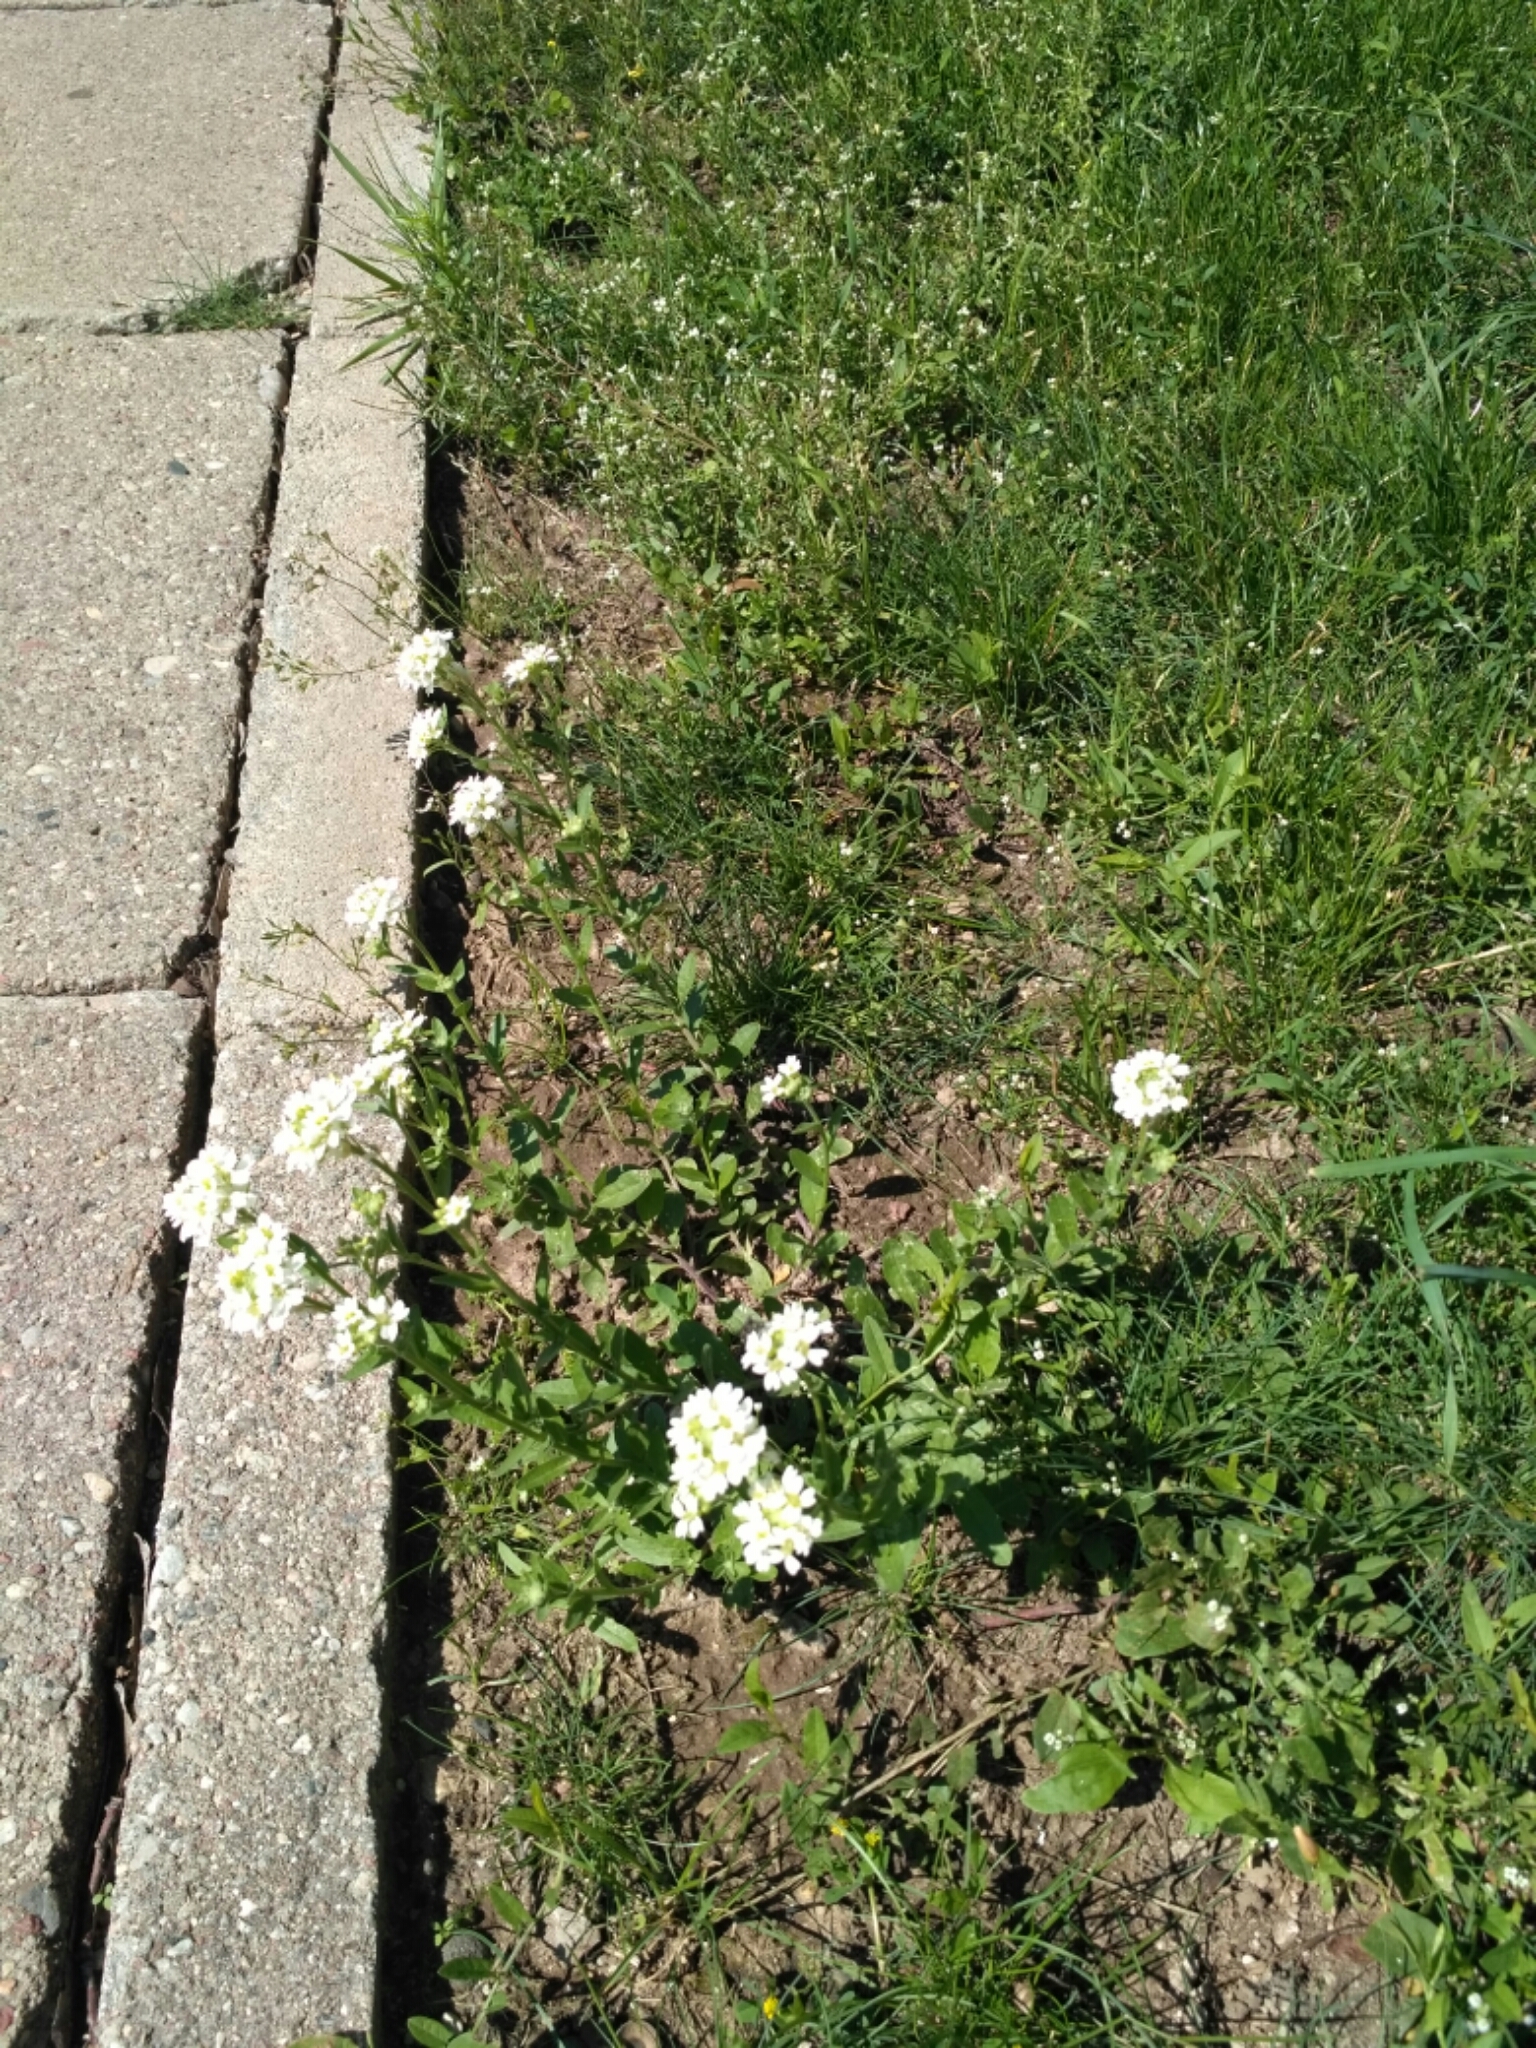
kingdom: Plantae
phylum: Tracheophyta
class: Magnoliopsida
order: Brassicales
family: Brassicaceae
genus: Berteroa
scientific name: Berteroa incana
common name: Hoary alison
